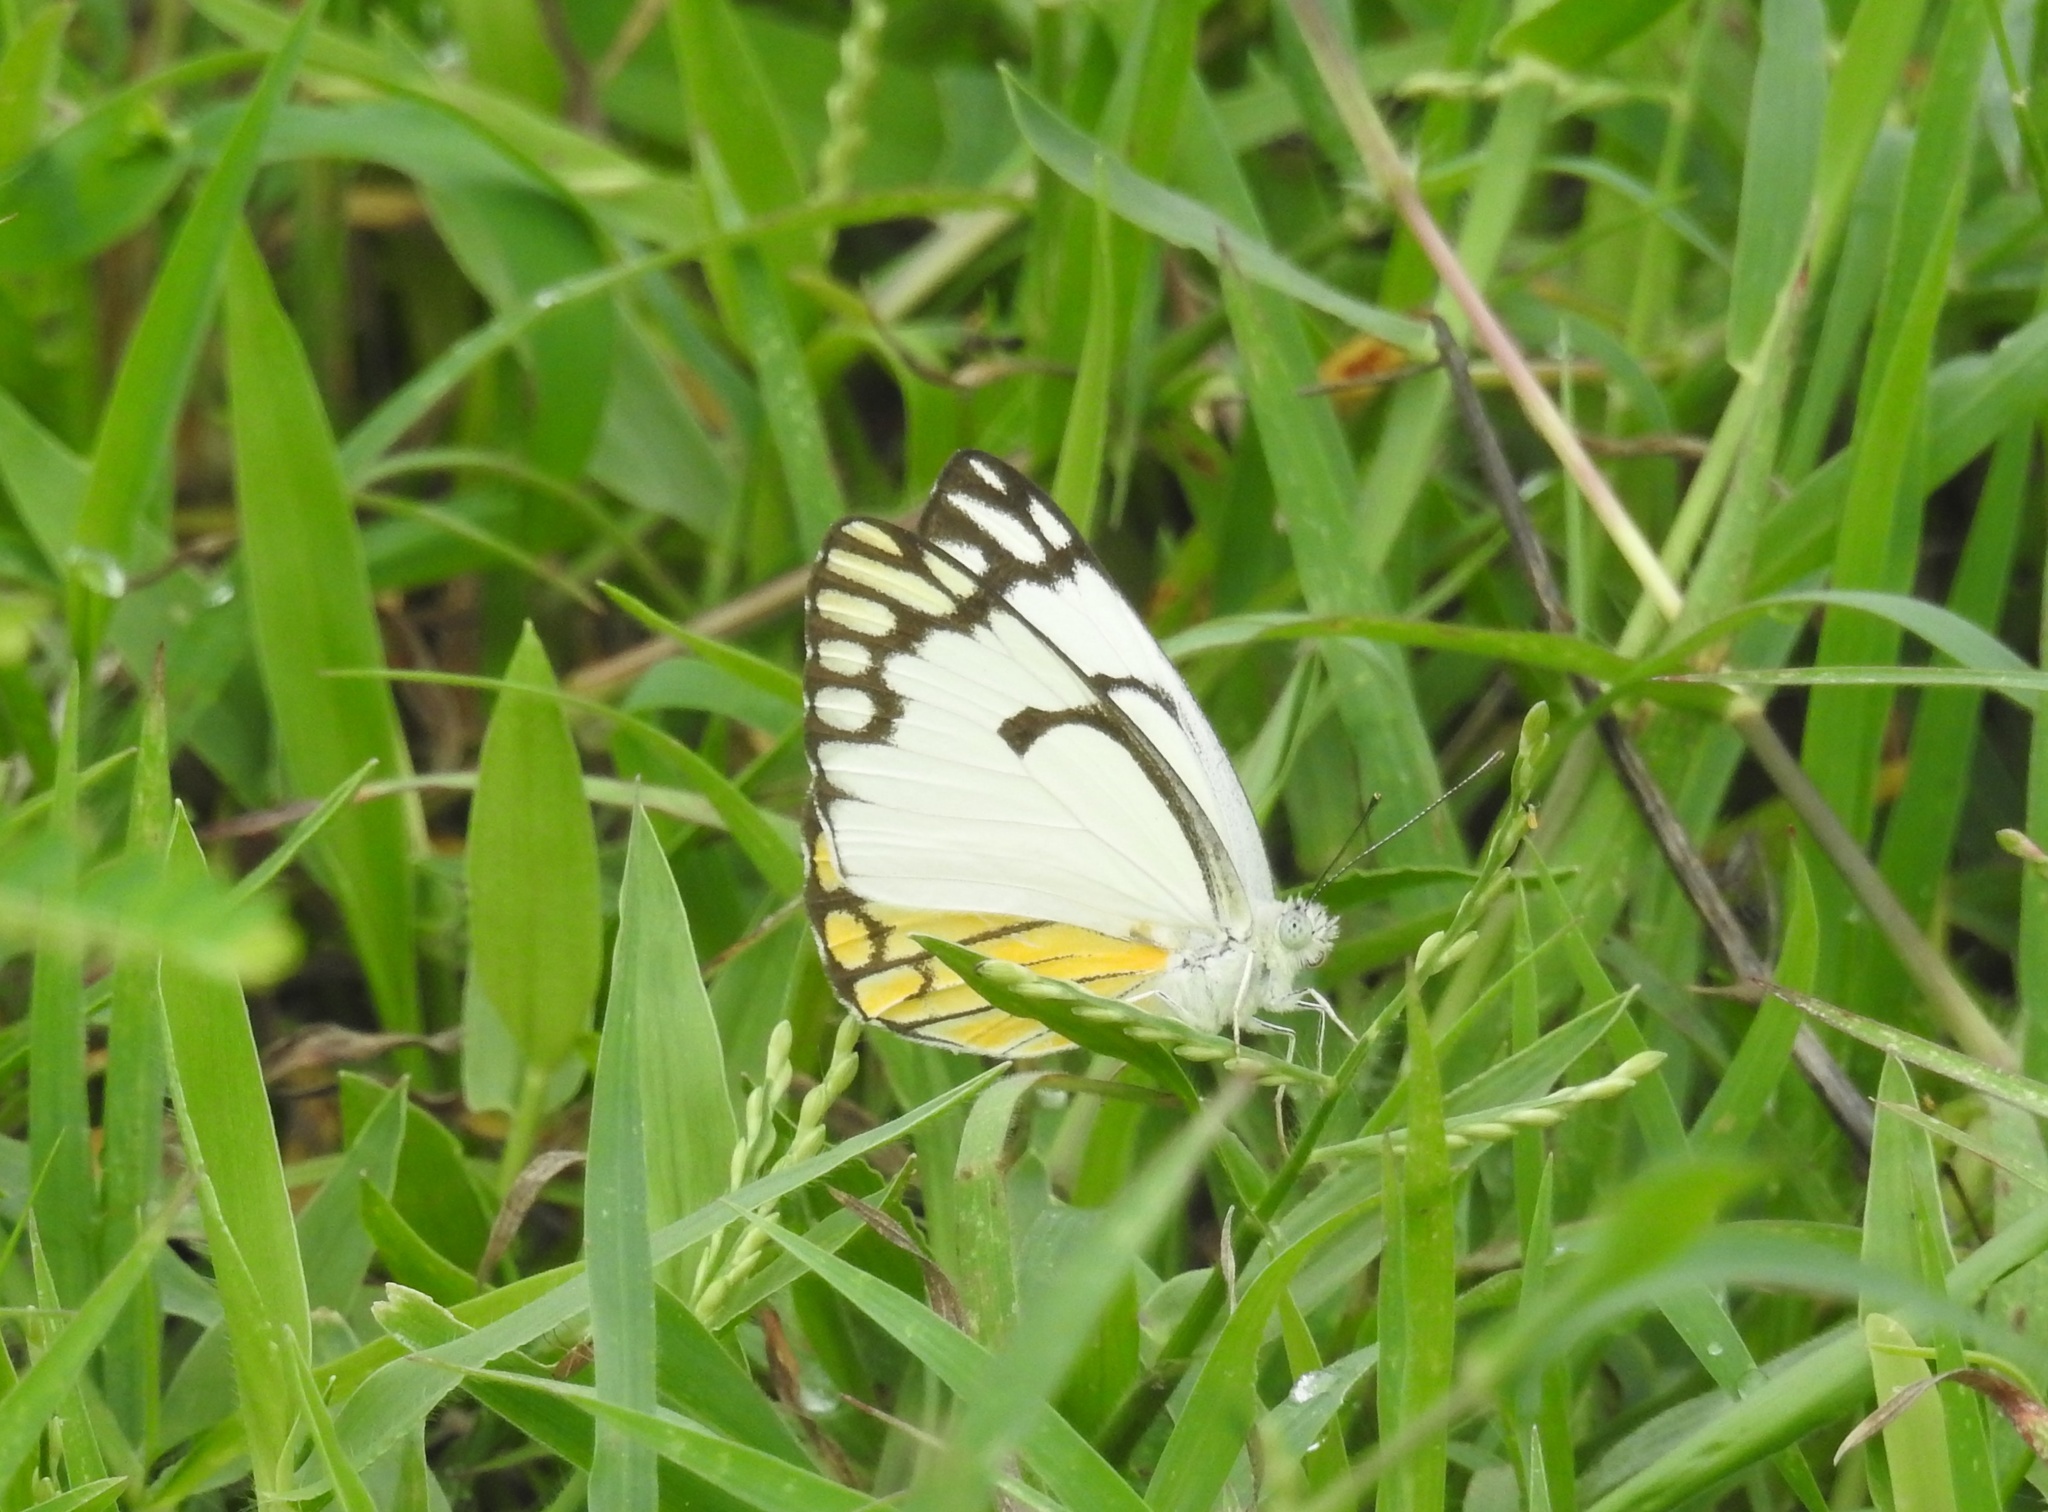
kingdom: Animalia
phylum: Arthropoda
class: Insecta
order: Lepidoptera
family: Pieridae
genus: Belenois
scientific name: Belenois aurota
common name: Brown-veined white
